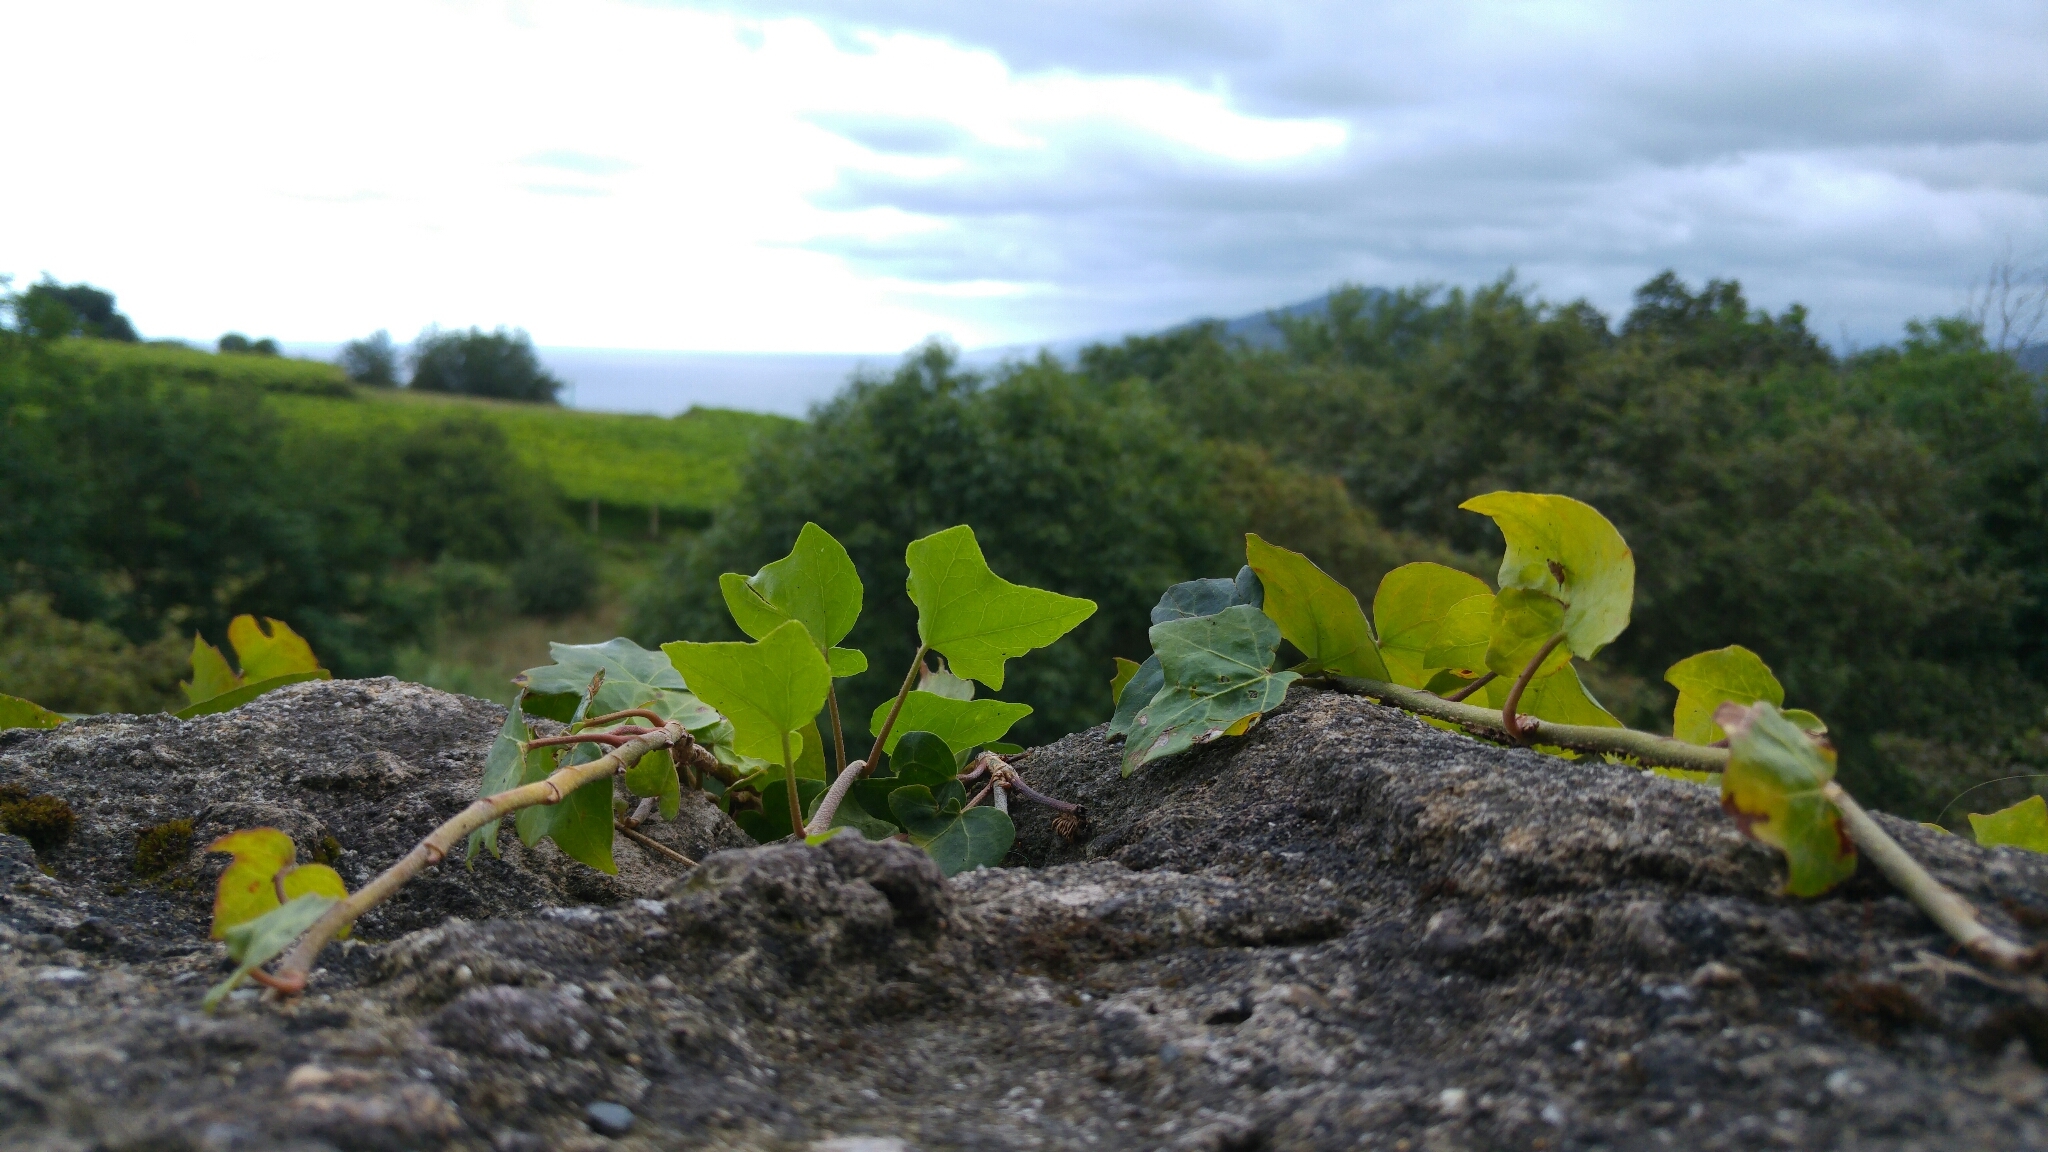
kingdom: Plantae
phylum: Tracheophyta
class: Magnoliopsida
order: Apiales
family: Araliaceae
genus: Hedera
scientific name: Hedera helix
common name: Ivy
